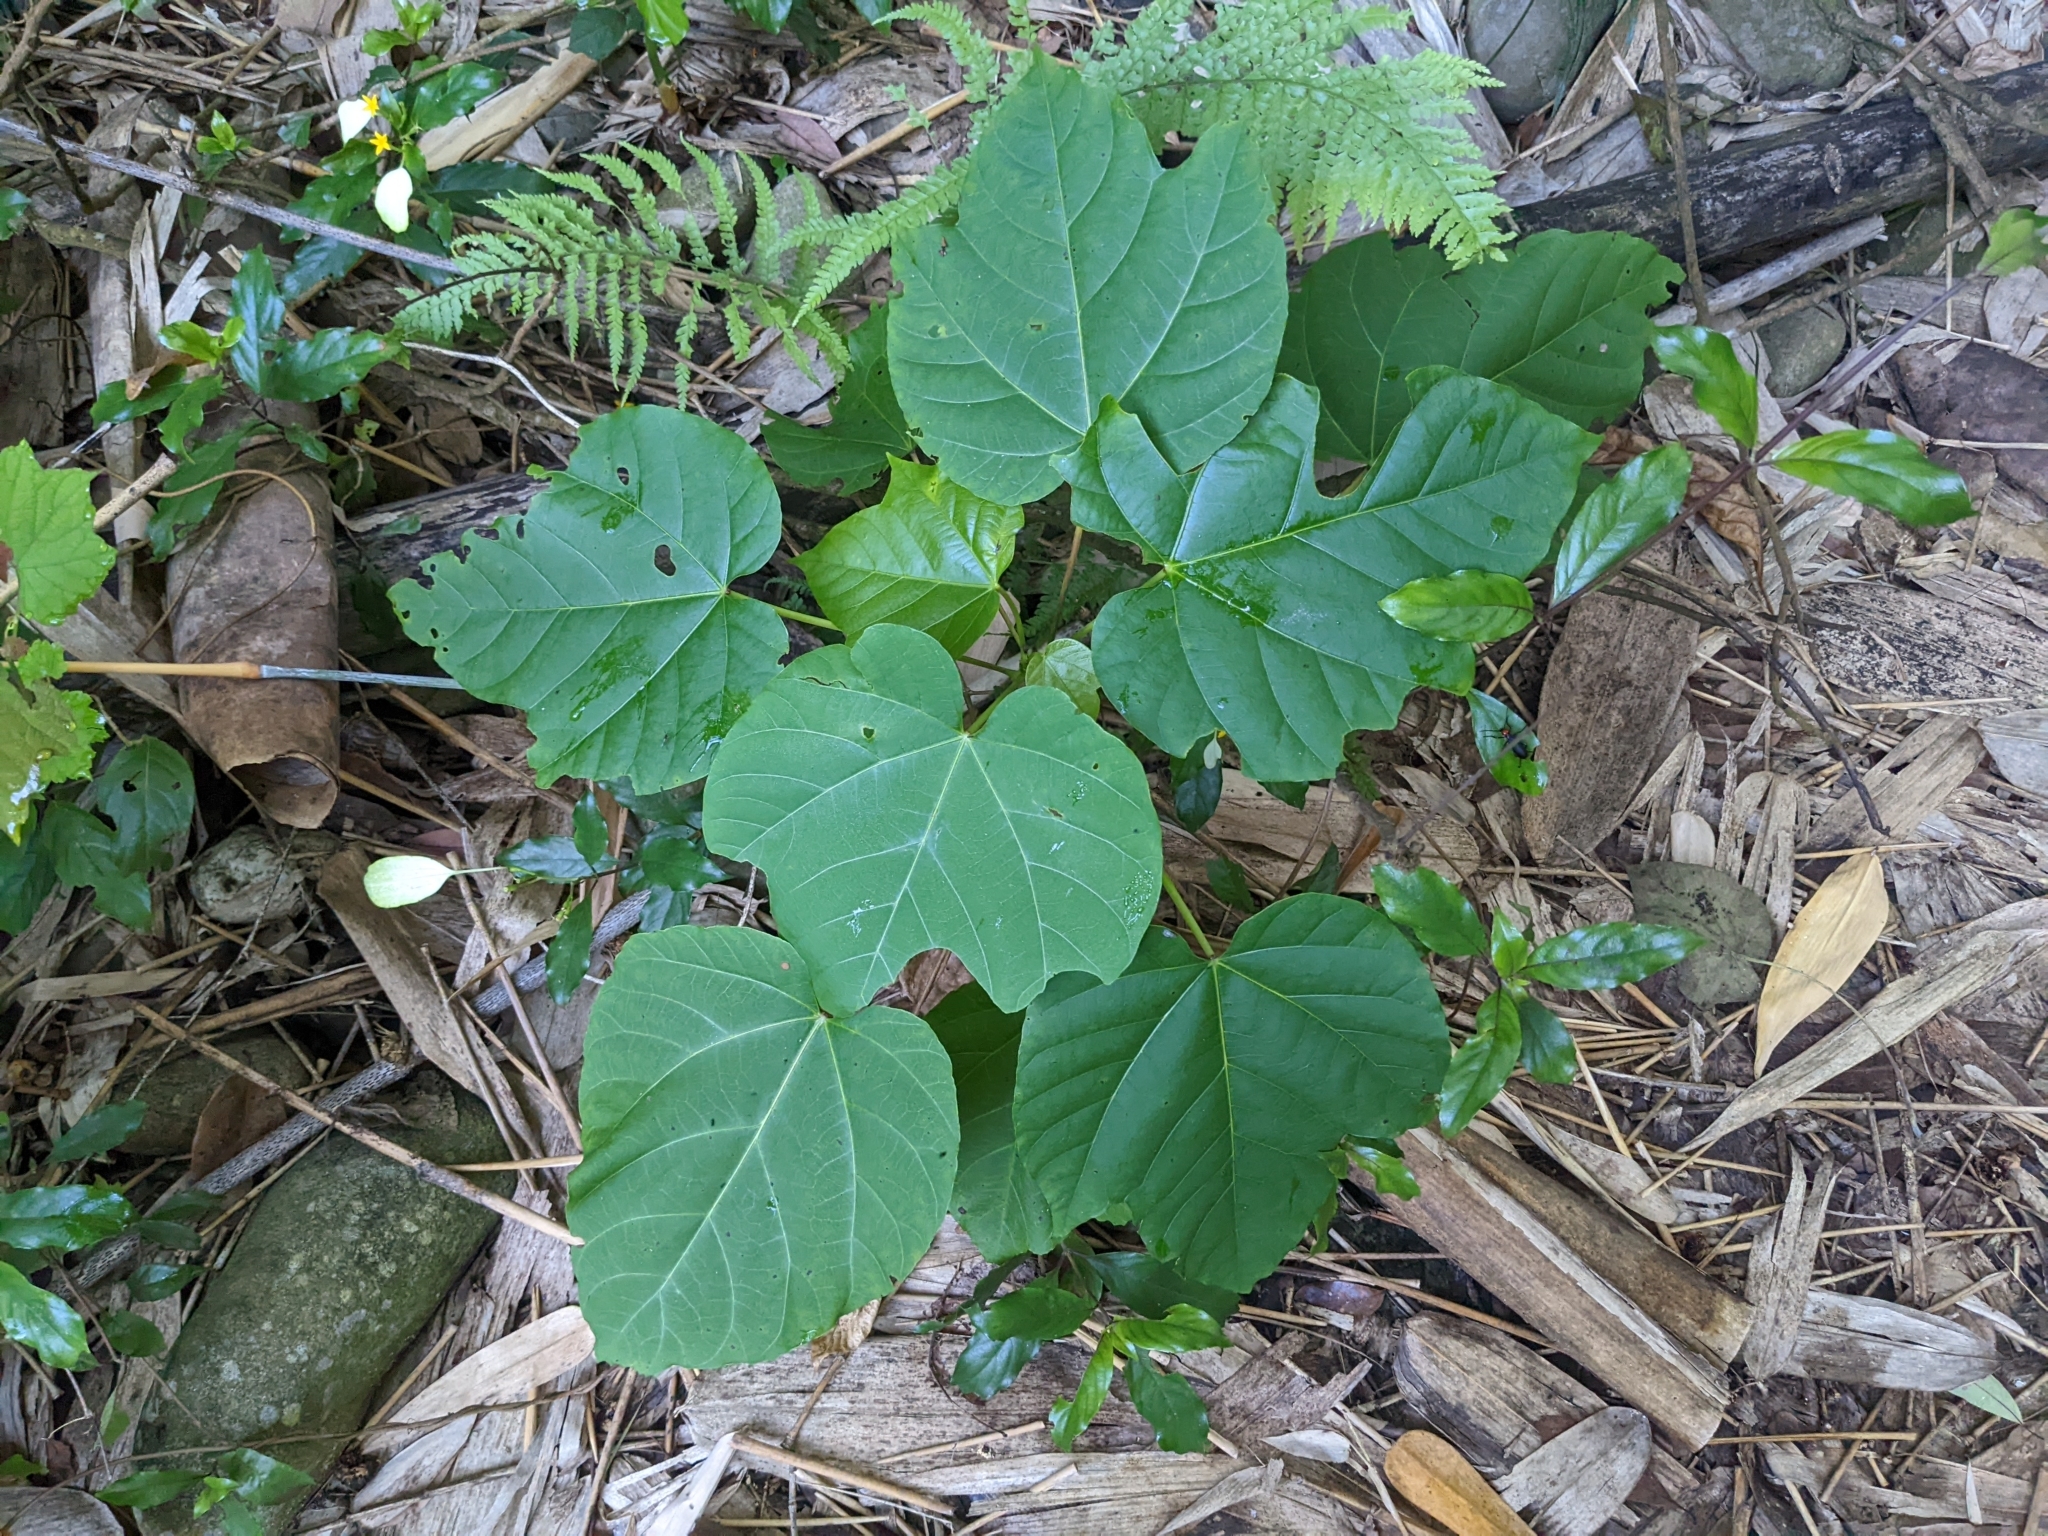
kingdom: Plantae
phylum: Tracheophyta
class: Magnoliopsida
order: Malpighiales
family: Euphorbiaceae
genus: Vernicia
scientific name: Vernicia fordii
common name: Tungoil tree
